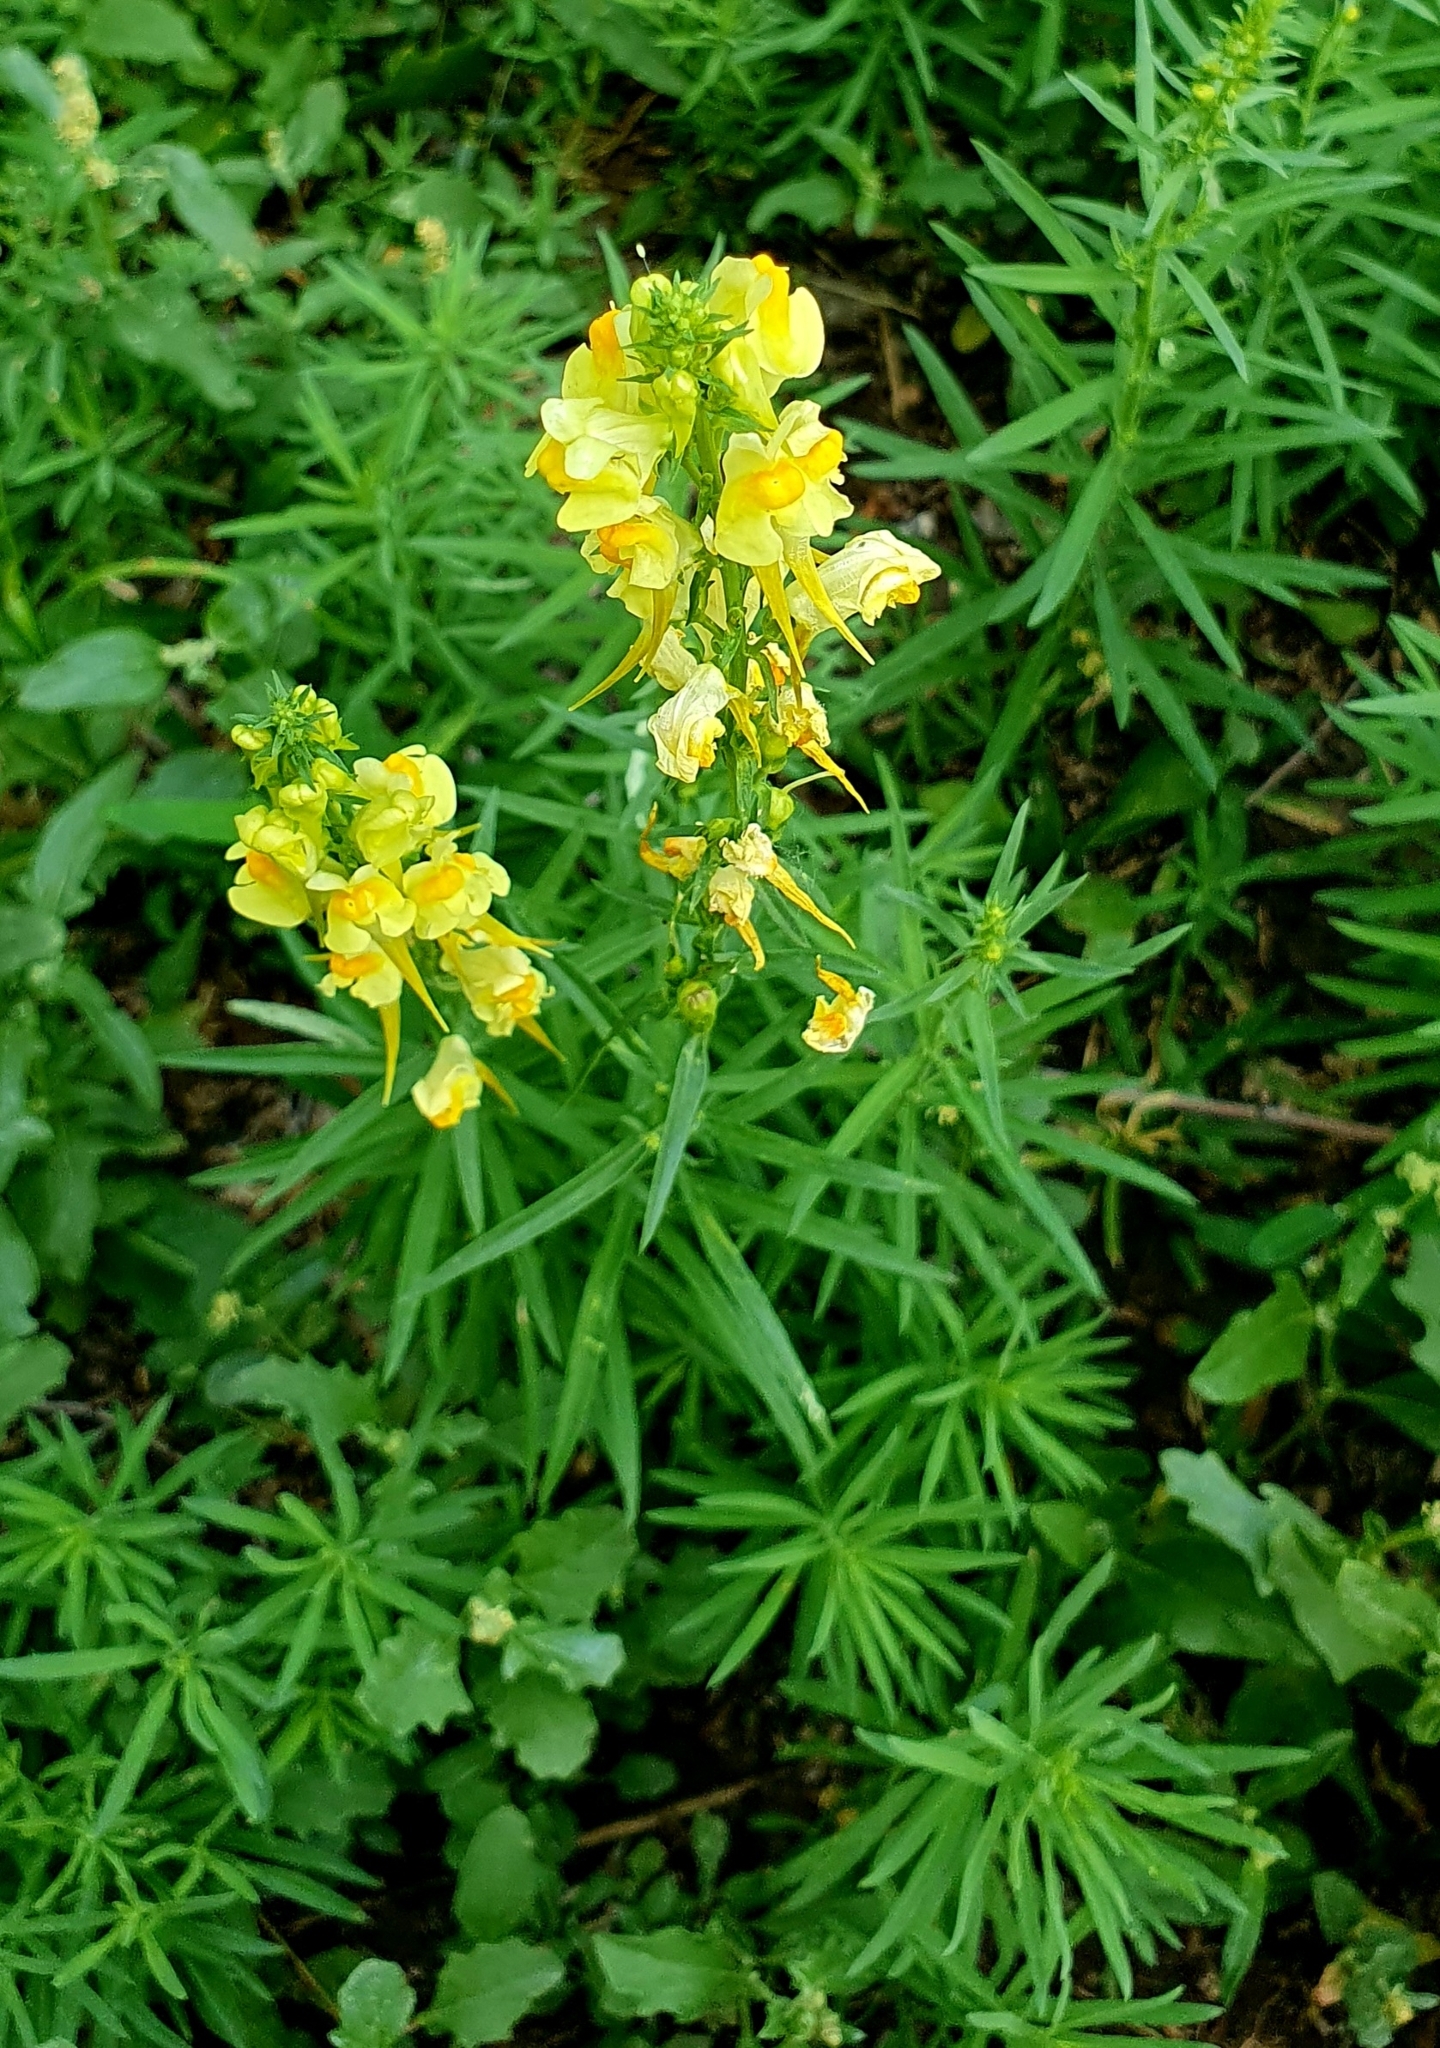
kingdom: Plantae
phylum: Tracheophyta
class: Magnoliopsida
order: Lamiales
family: Plantaginaceae
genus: Linaria
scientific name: Linaria vulgaris
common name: Butter and eggs
